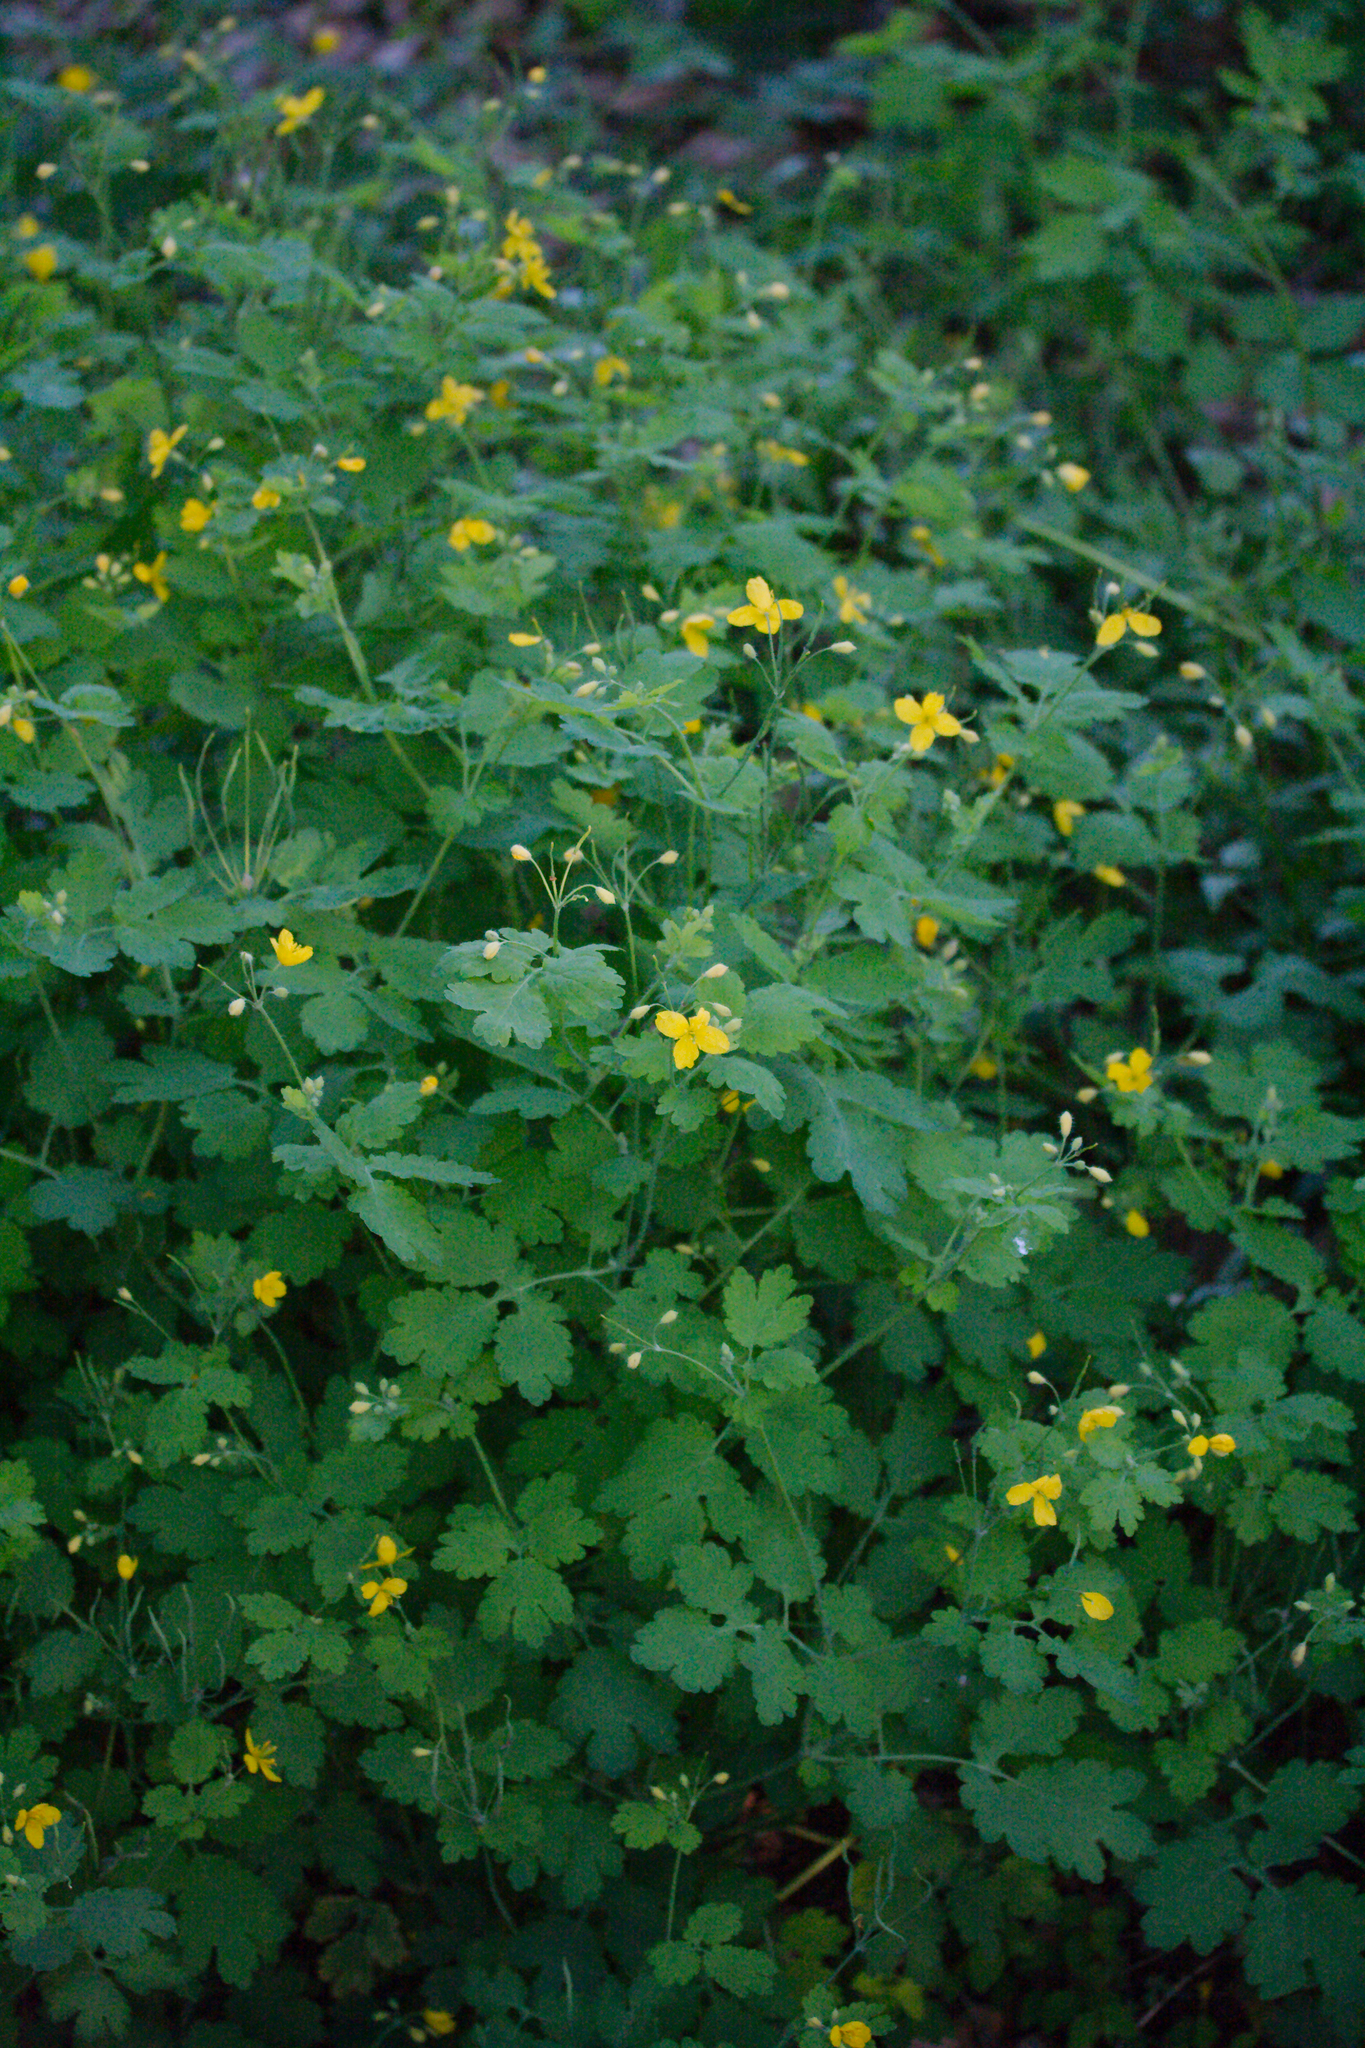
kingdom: Plantae
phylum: Tracheophyta
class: Magnoliopsida
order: Ranunculales
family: Papaveraceae
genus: Chelidonium
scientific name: Chelidonium majus
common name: Greater celandine
